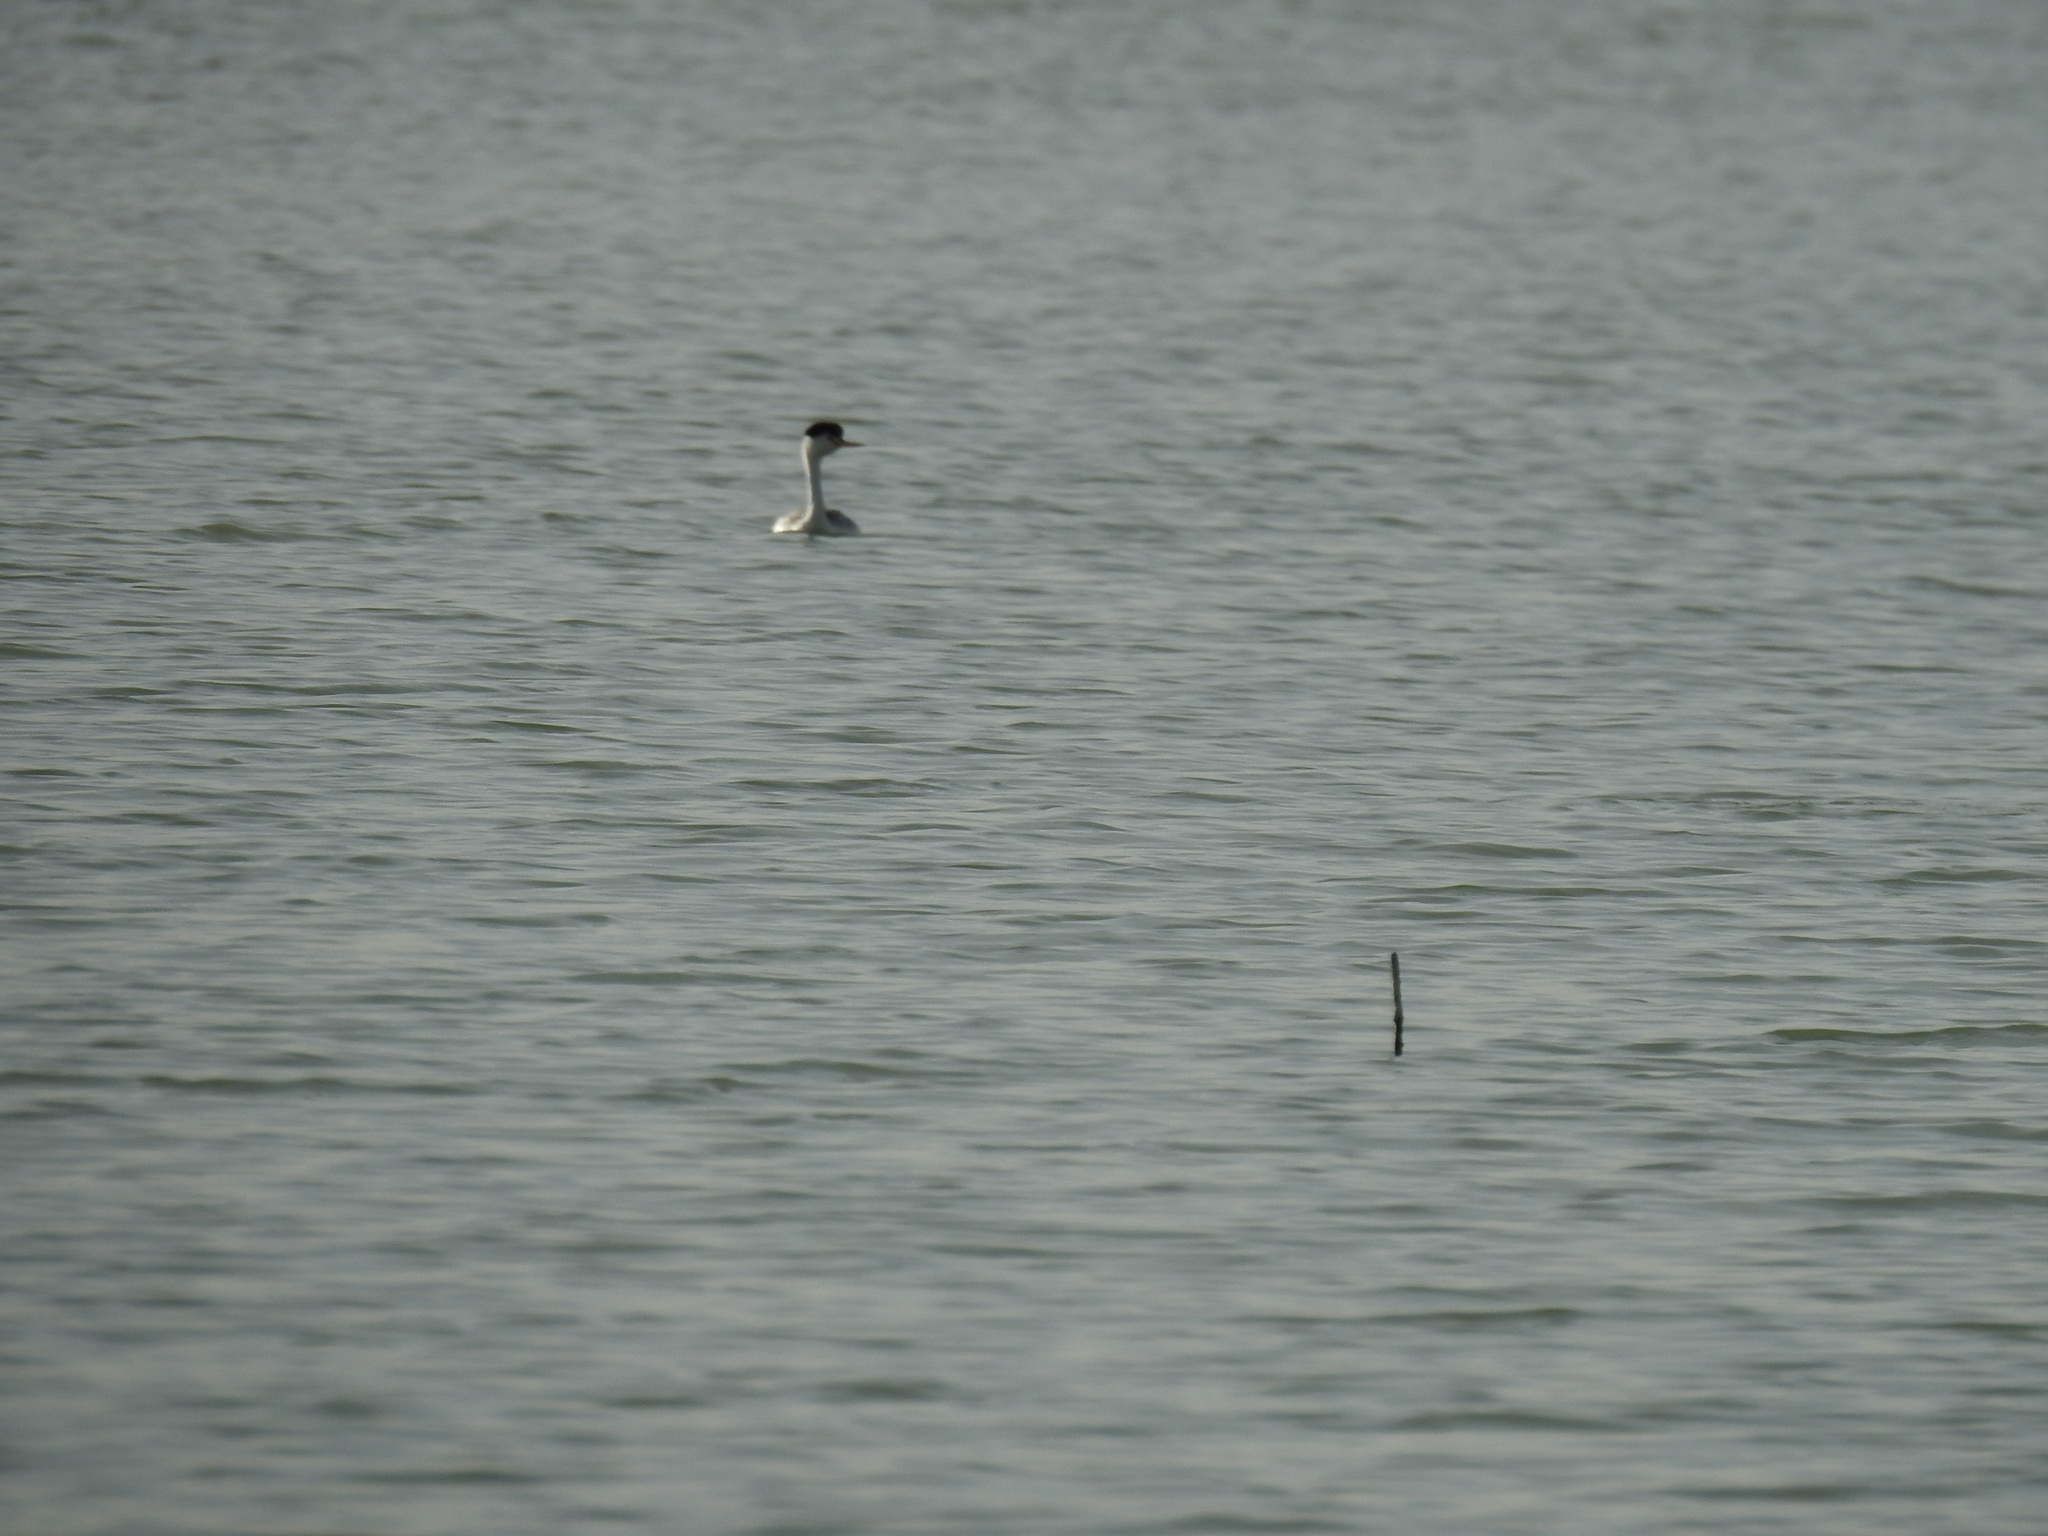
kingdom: Animalia
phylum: Chordata
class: Aves
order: Podicipediformes
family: Podicipedidae
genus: Aechmophorus
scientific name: Aechmophorus clarkii
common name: Clark's grebe
